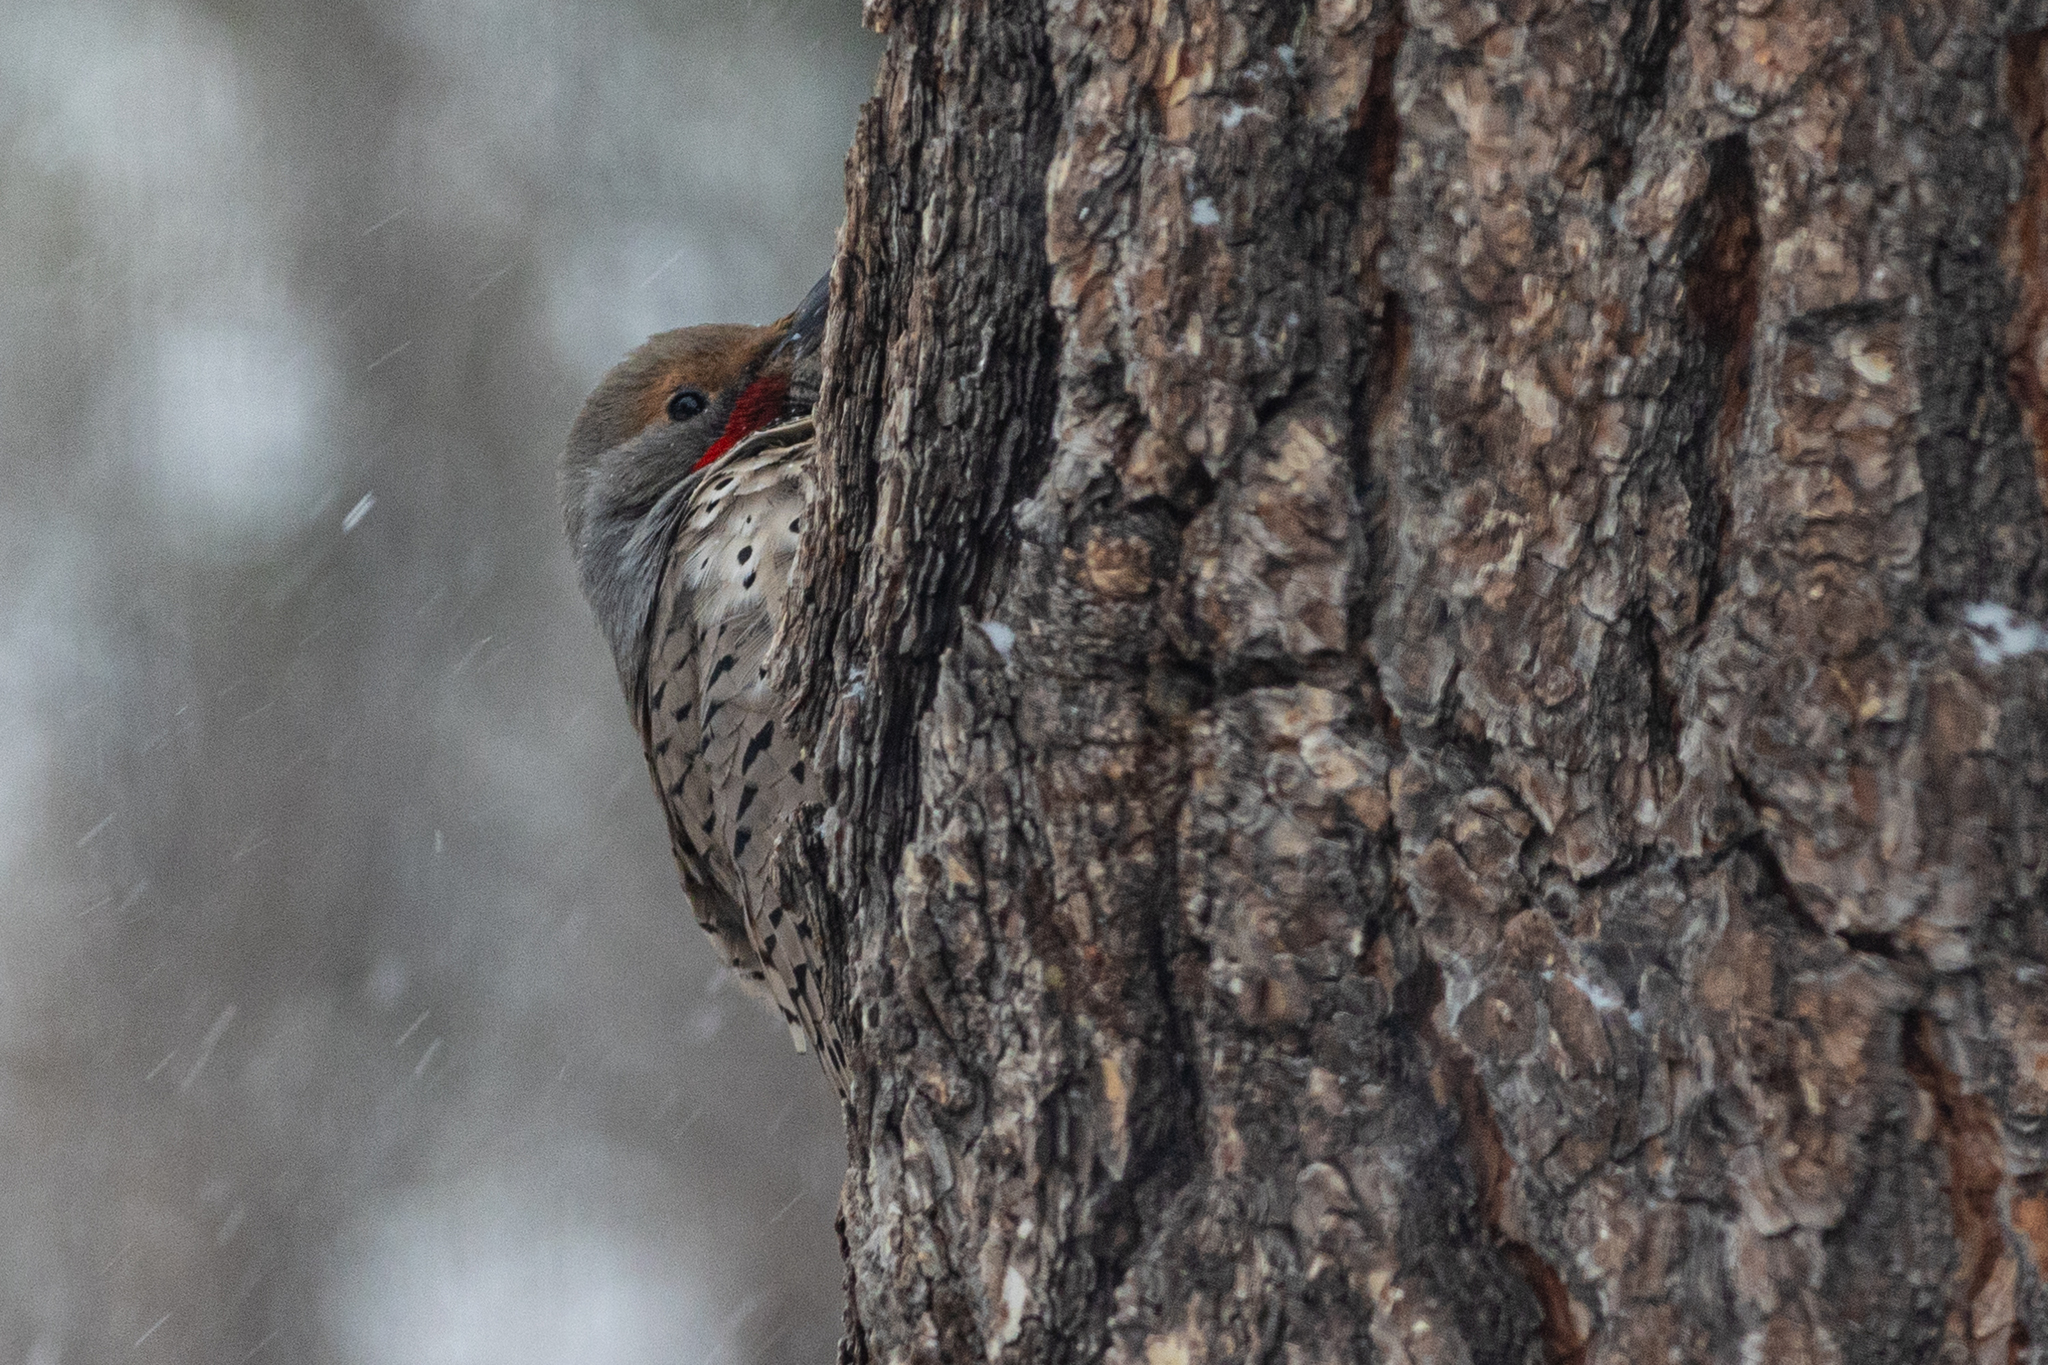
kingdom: Animalia
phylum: Chordata
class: Aves
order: Piciformes
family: Picidae
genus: Colaptes
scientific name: Colaptes auratus
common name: Northern flicker
